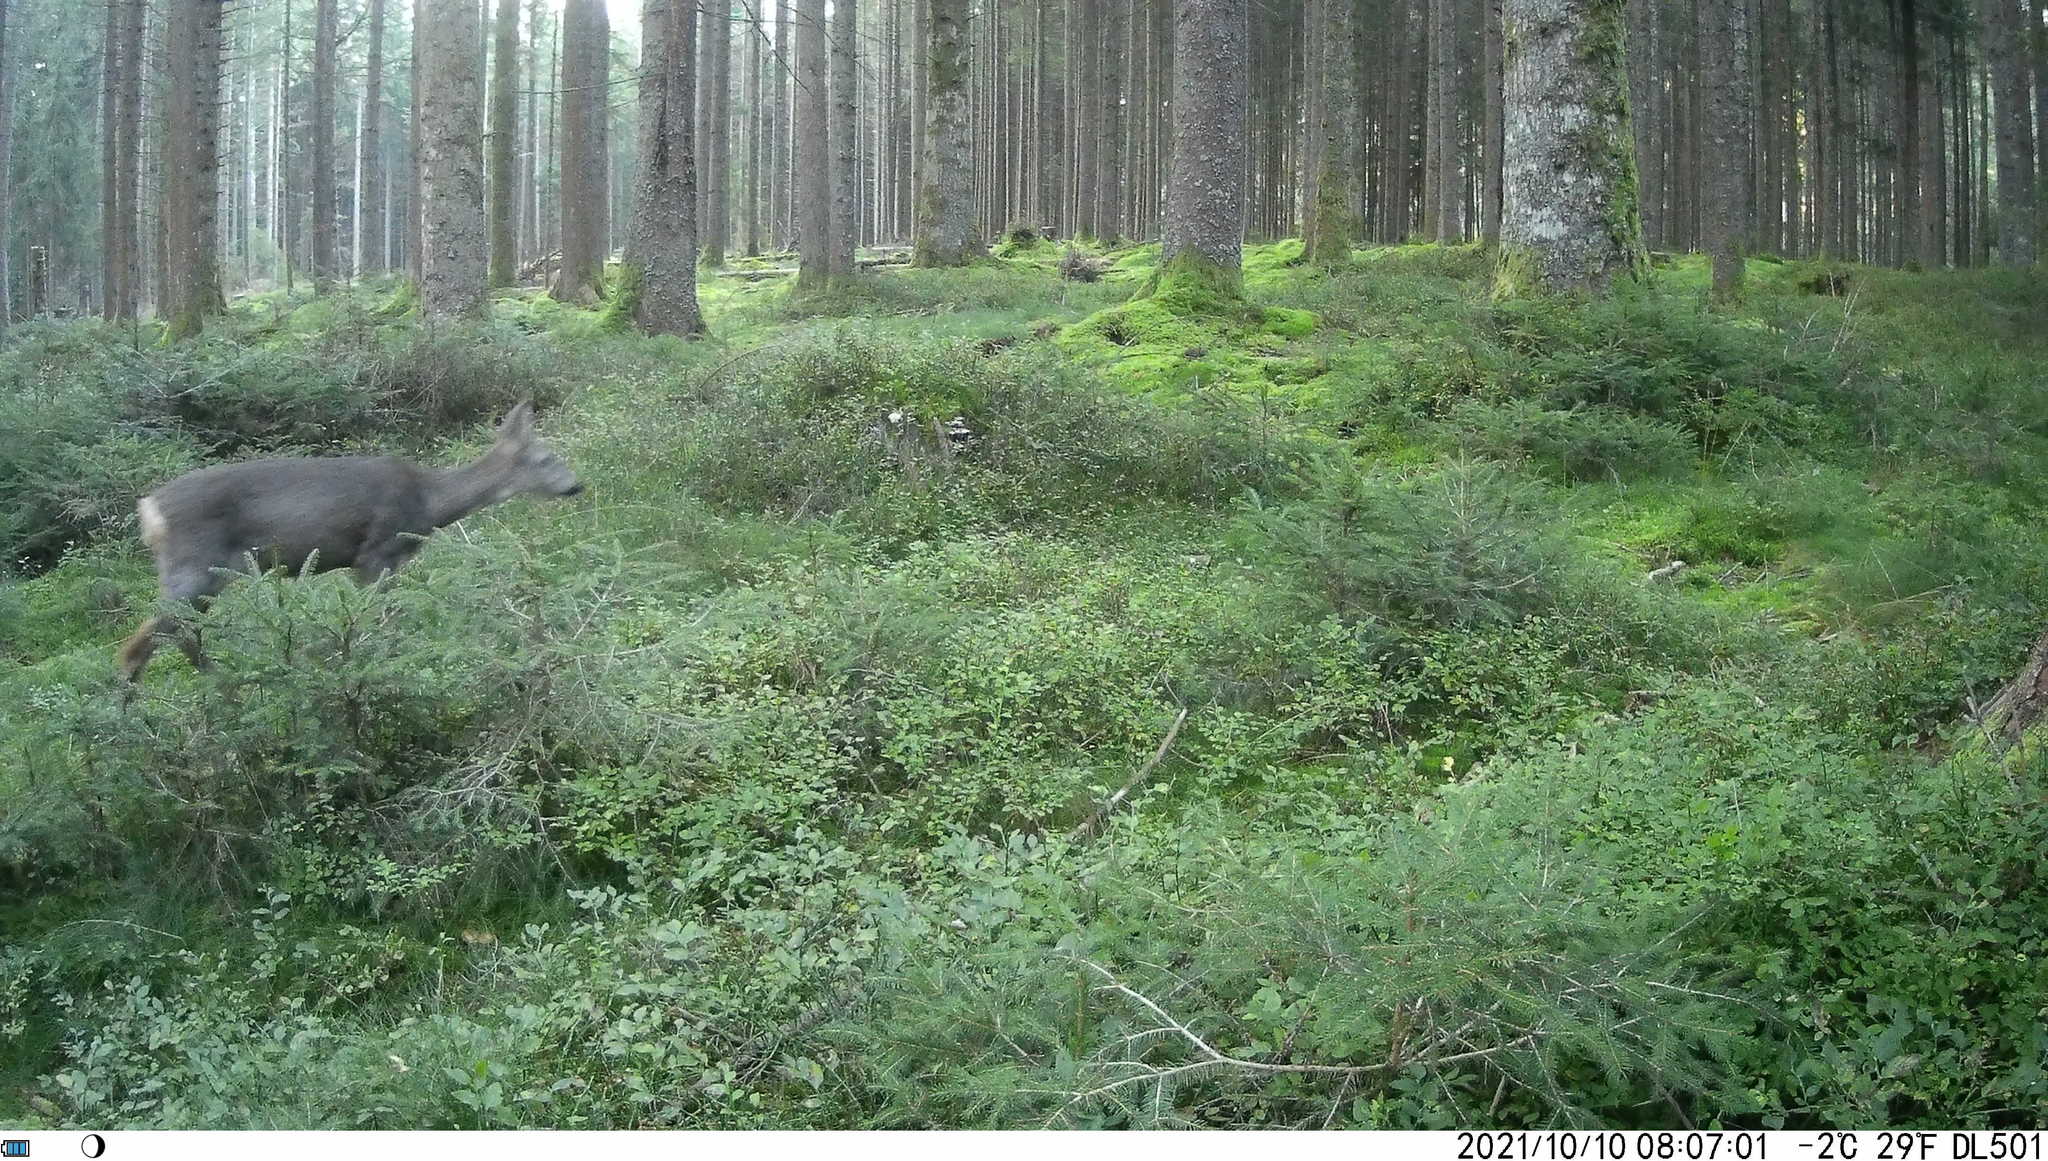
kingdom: Animalia
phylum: Chordata
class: Mammalia
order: Artiodactyla
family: Cervidae
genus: Capreolus
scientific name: Capreolus capreolus
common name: Western roe deer
